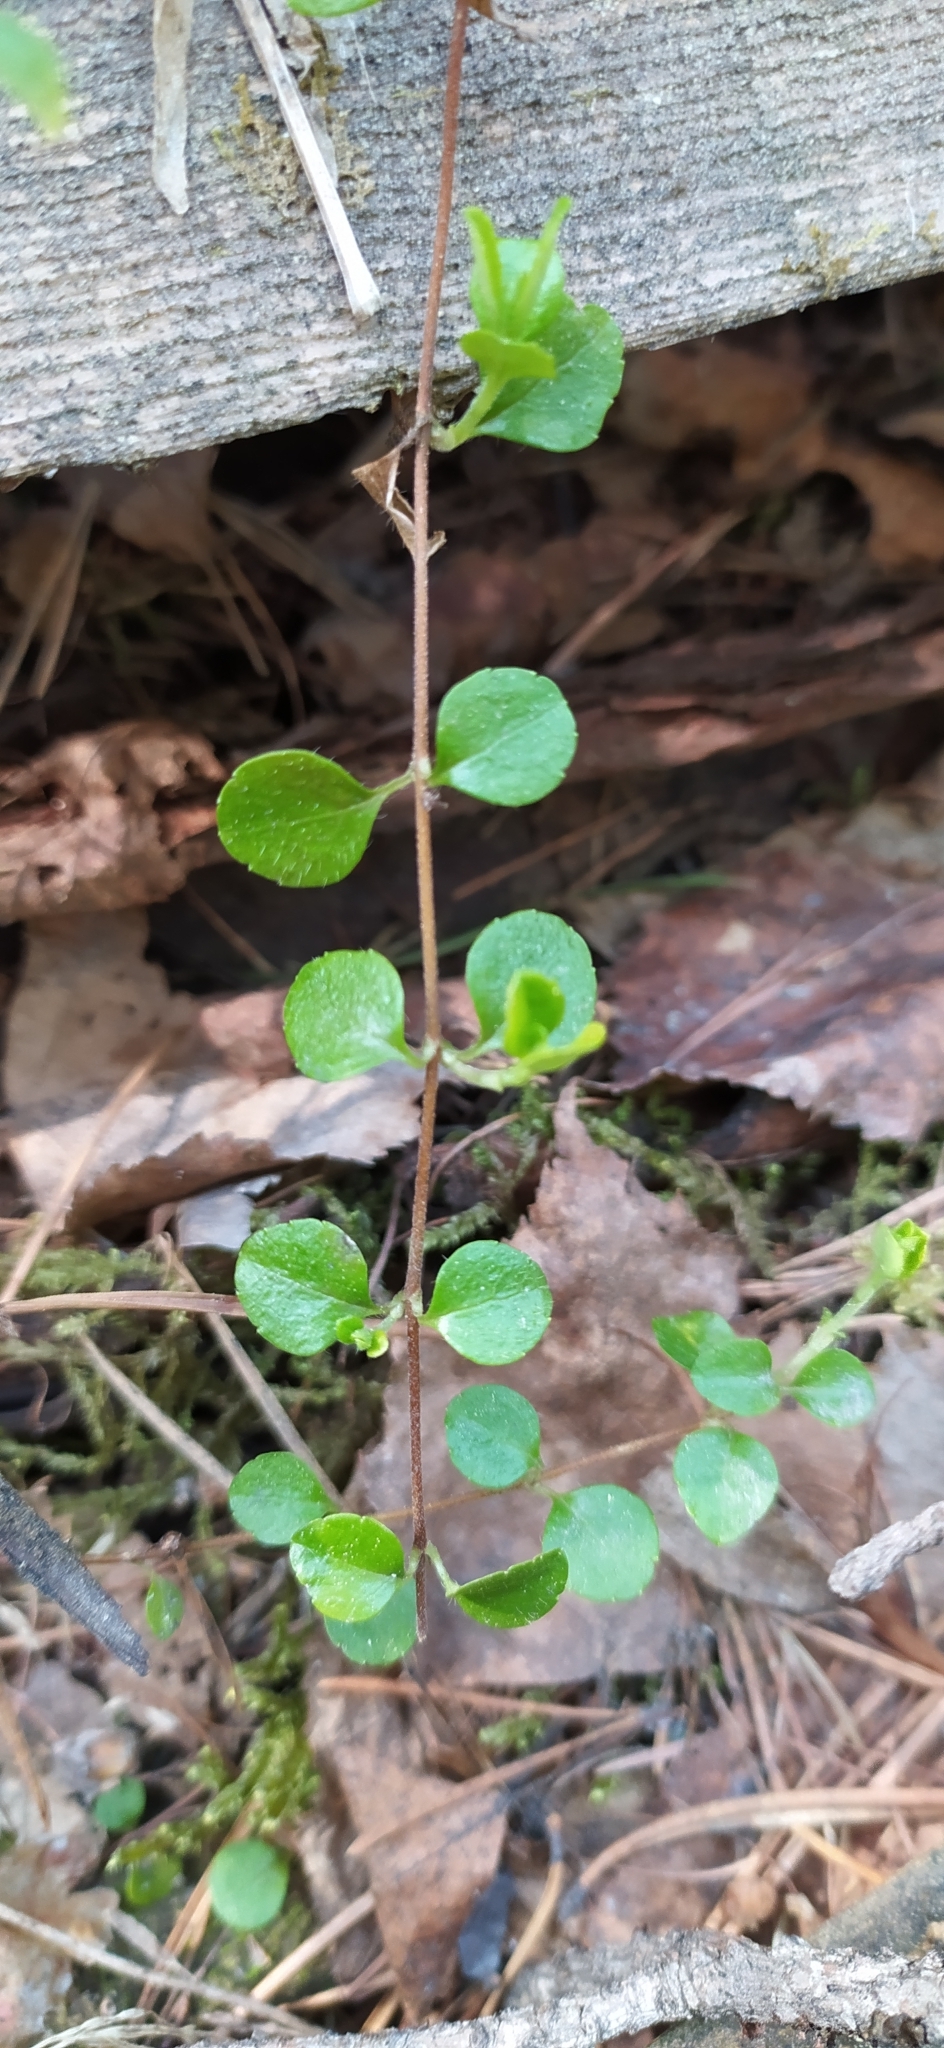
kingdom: Plantae
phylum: Tracheophyta
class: Magnoliopsida
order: Dipsacales
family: Caprifoliaceae
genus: Linnaea
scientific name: Linnaea borealis
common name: Twinflower
